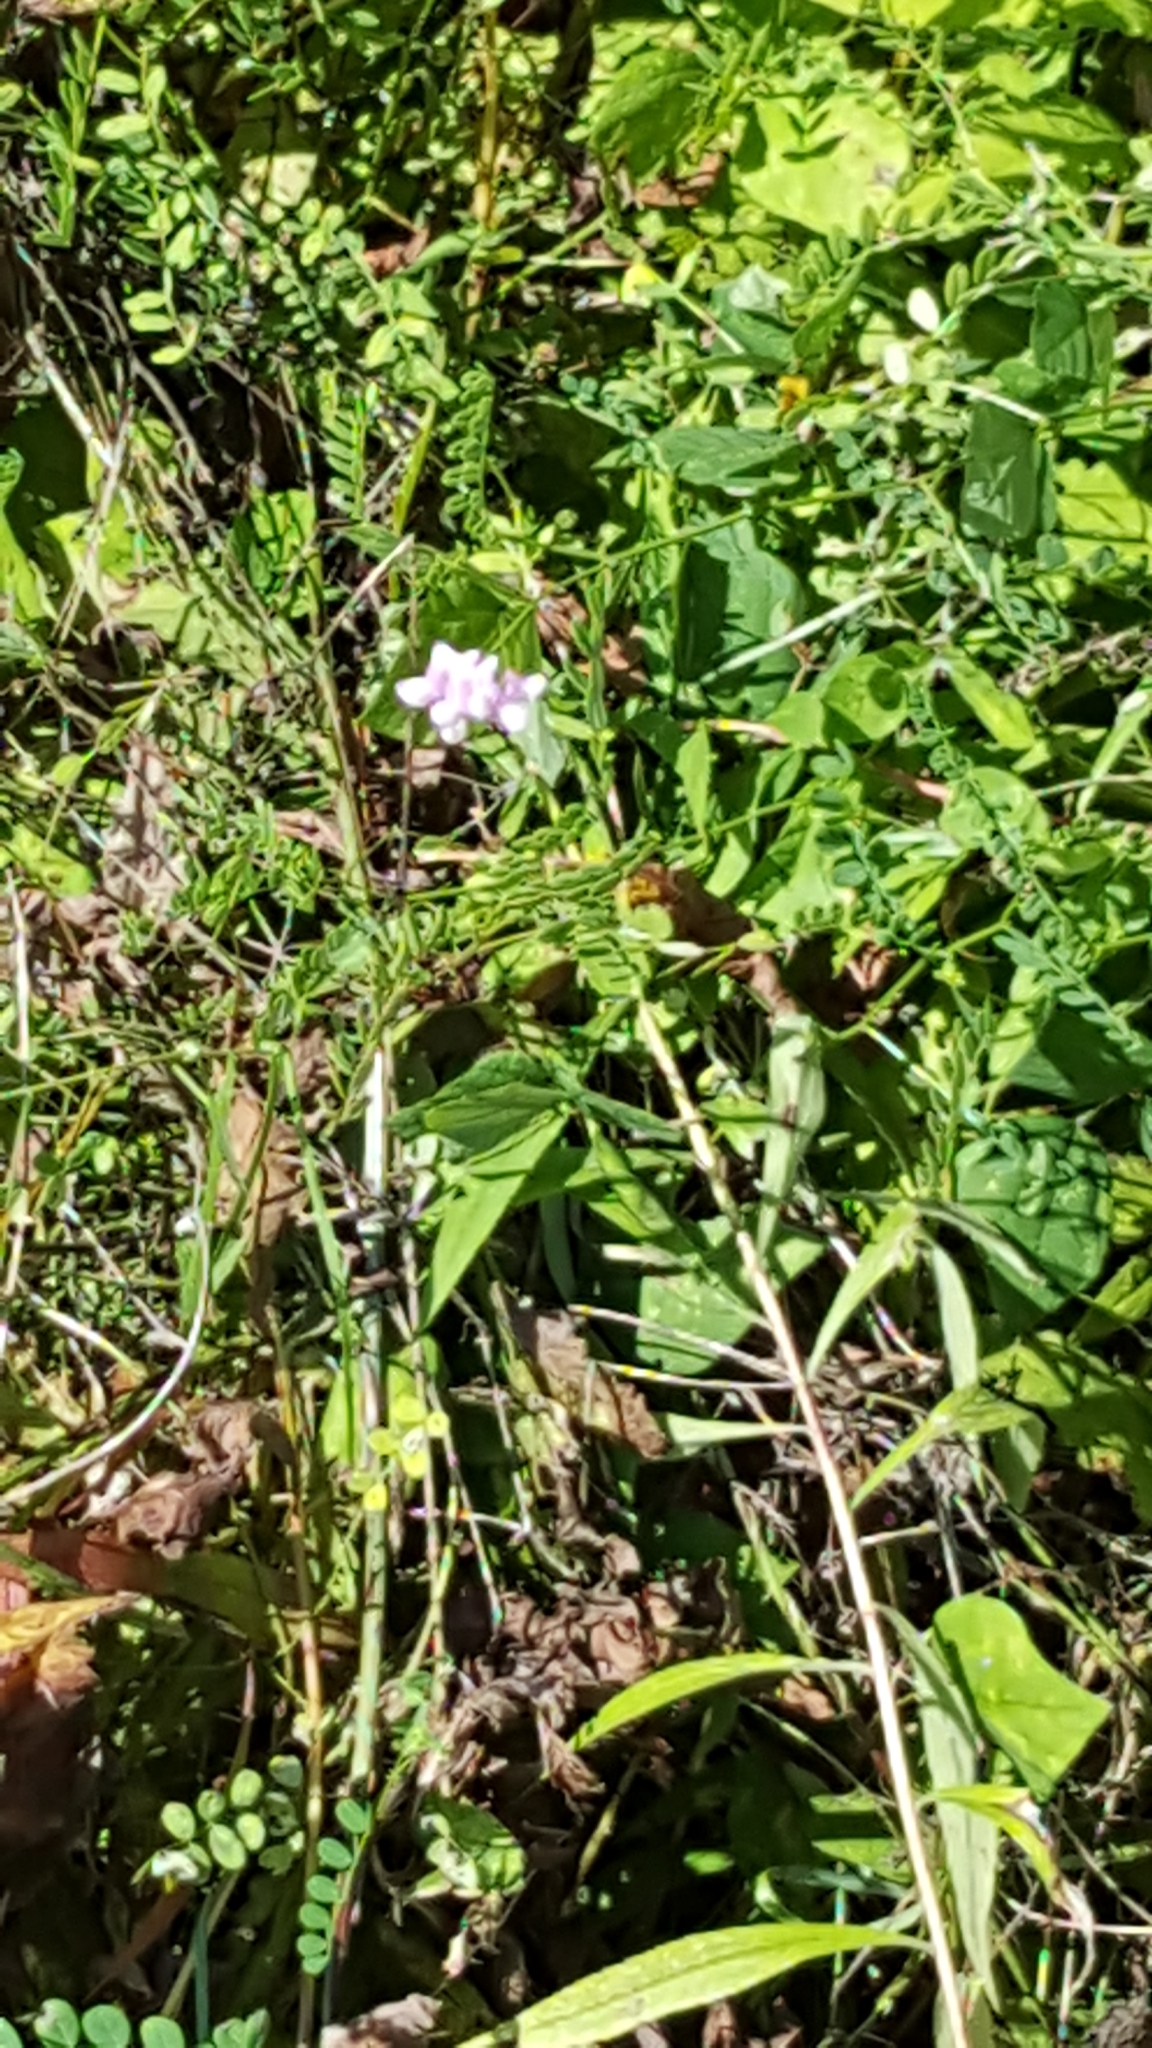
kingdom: Plantae
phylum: Tracheophyta
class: Magnoliopsida
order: Fabales
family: Fabaceae
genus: Coronilla
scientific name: Coronilla varia
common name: Crownvetch
